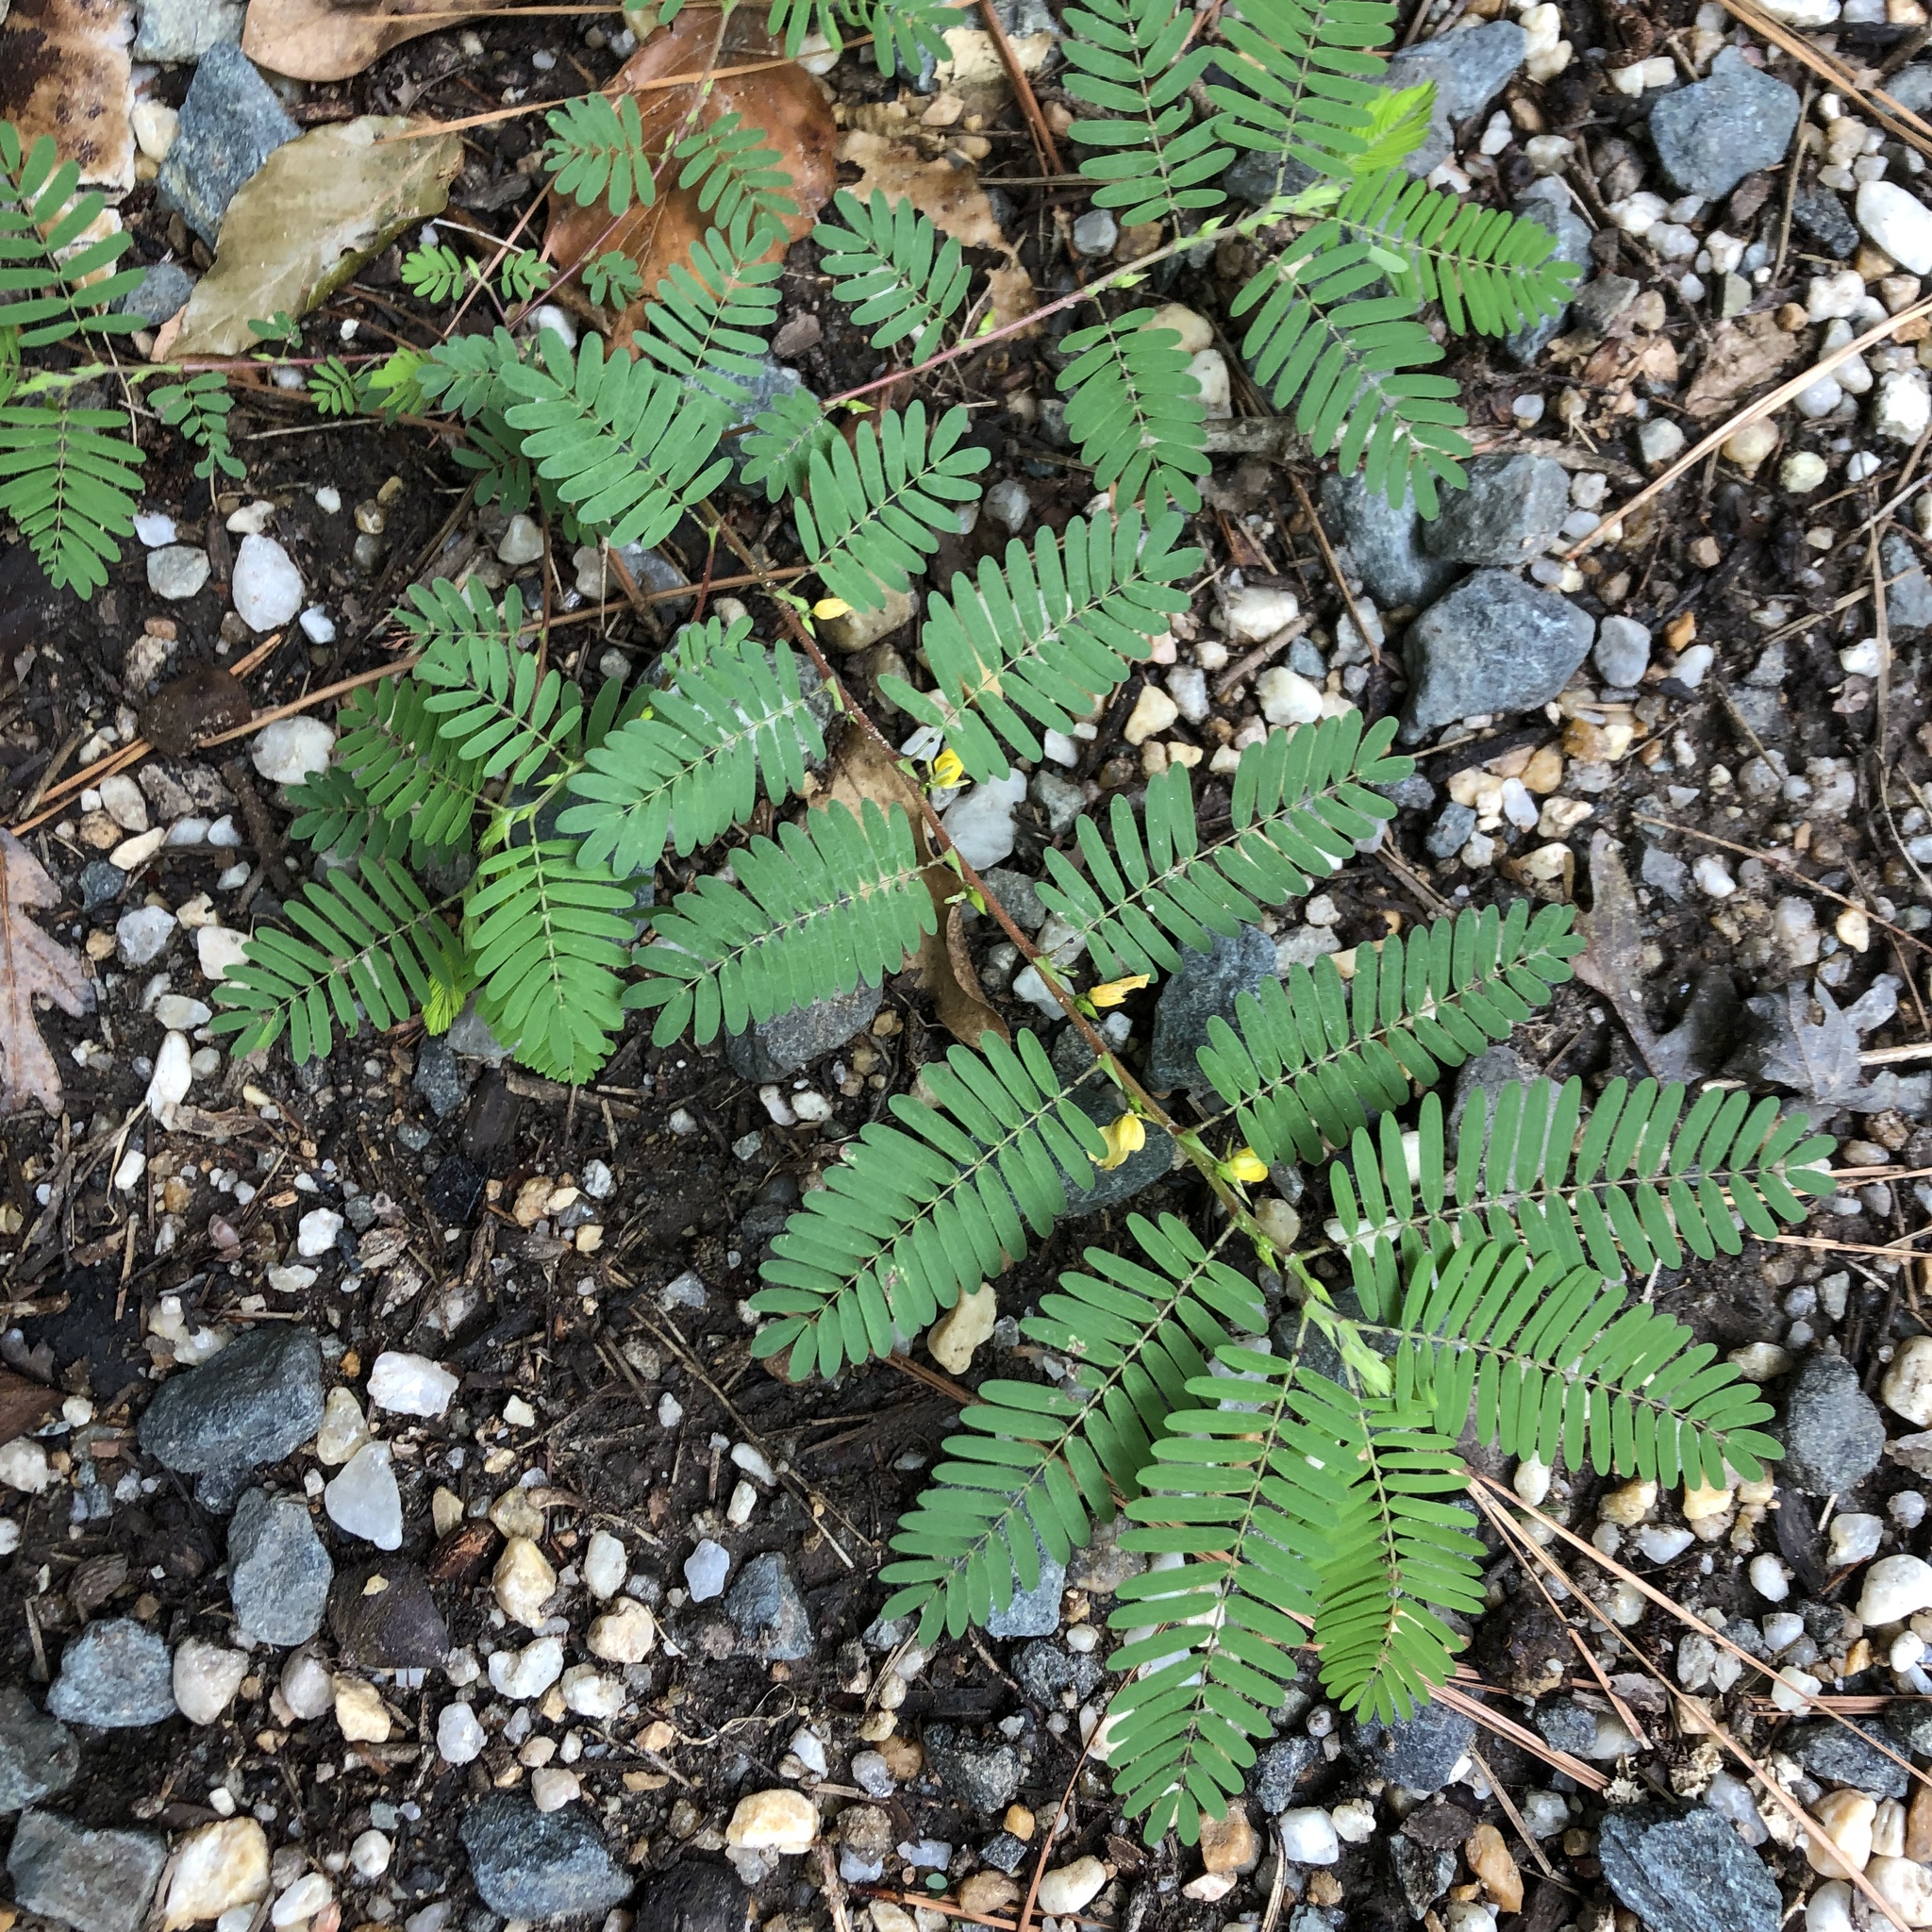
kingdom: Plantae
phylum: Tracheophyta
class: Magnoliopsida
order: Fabales
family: Fabaceae
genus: Chamaecrista
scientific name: Chamaecrista nictitans
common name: Sensitive cassia
